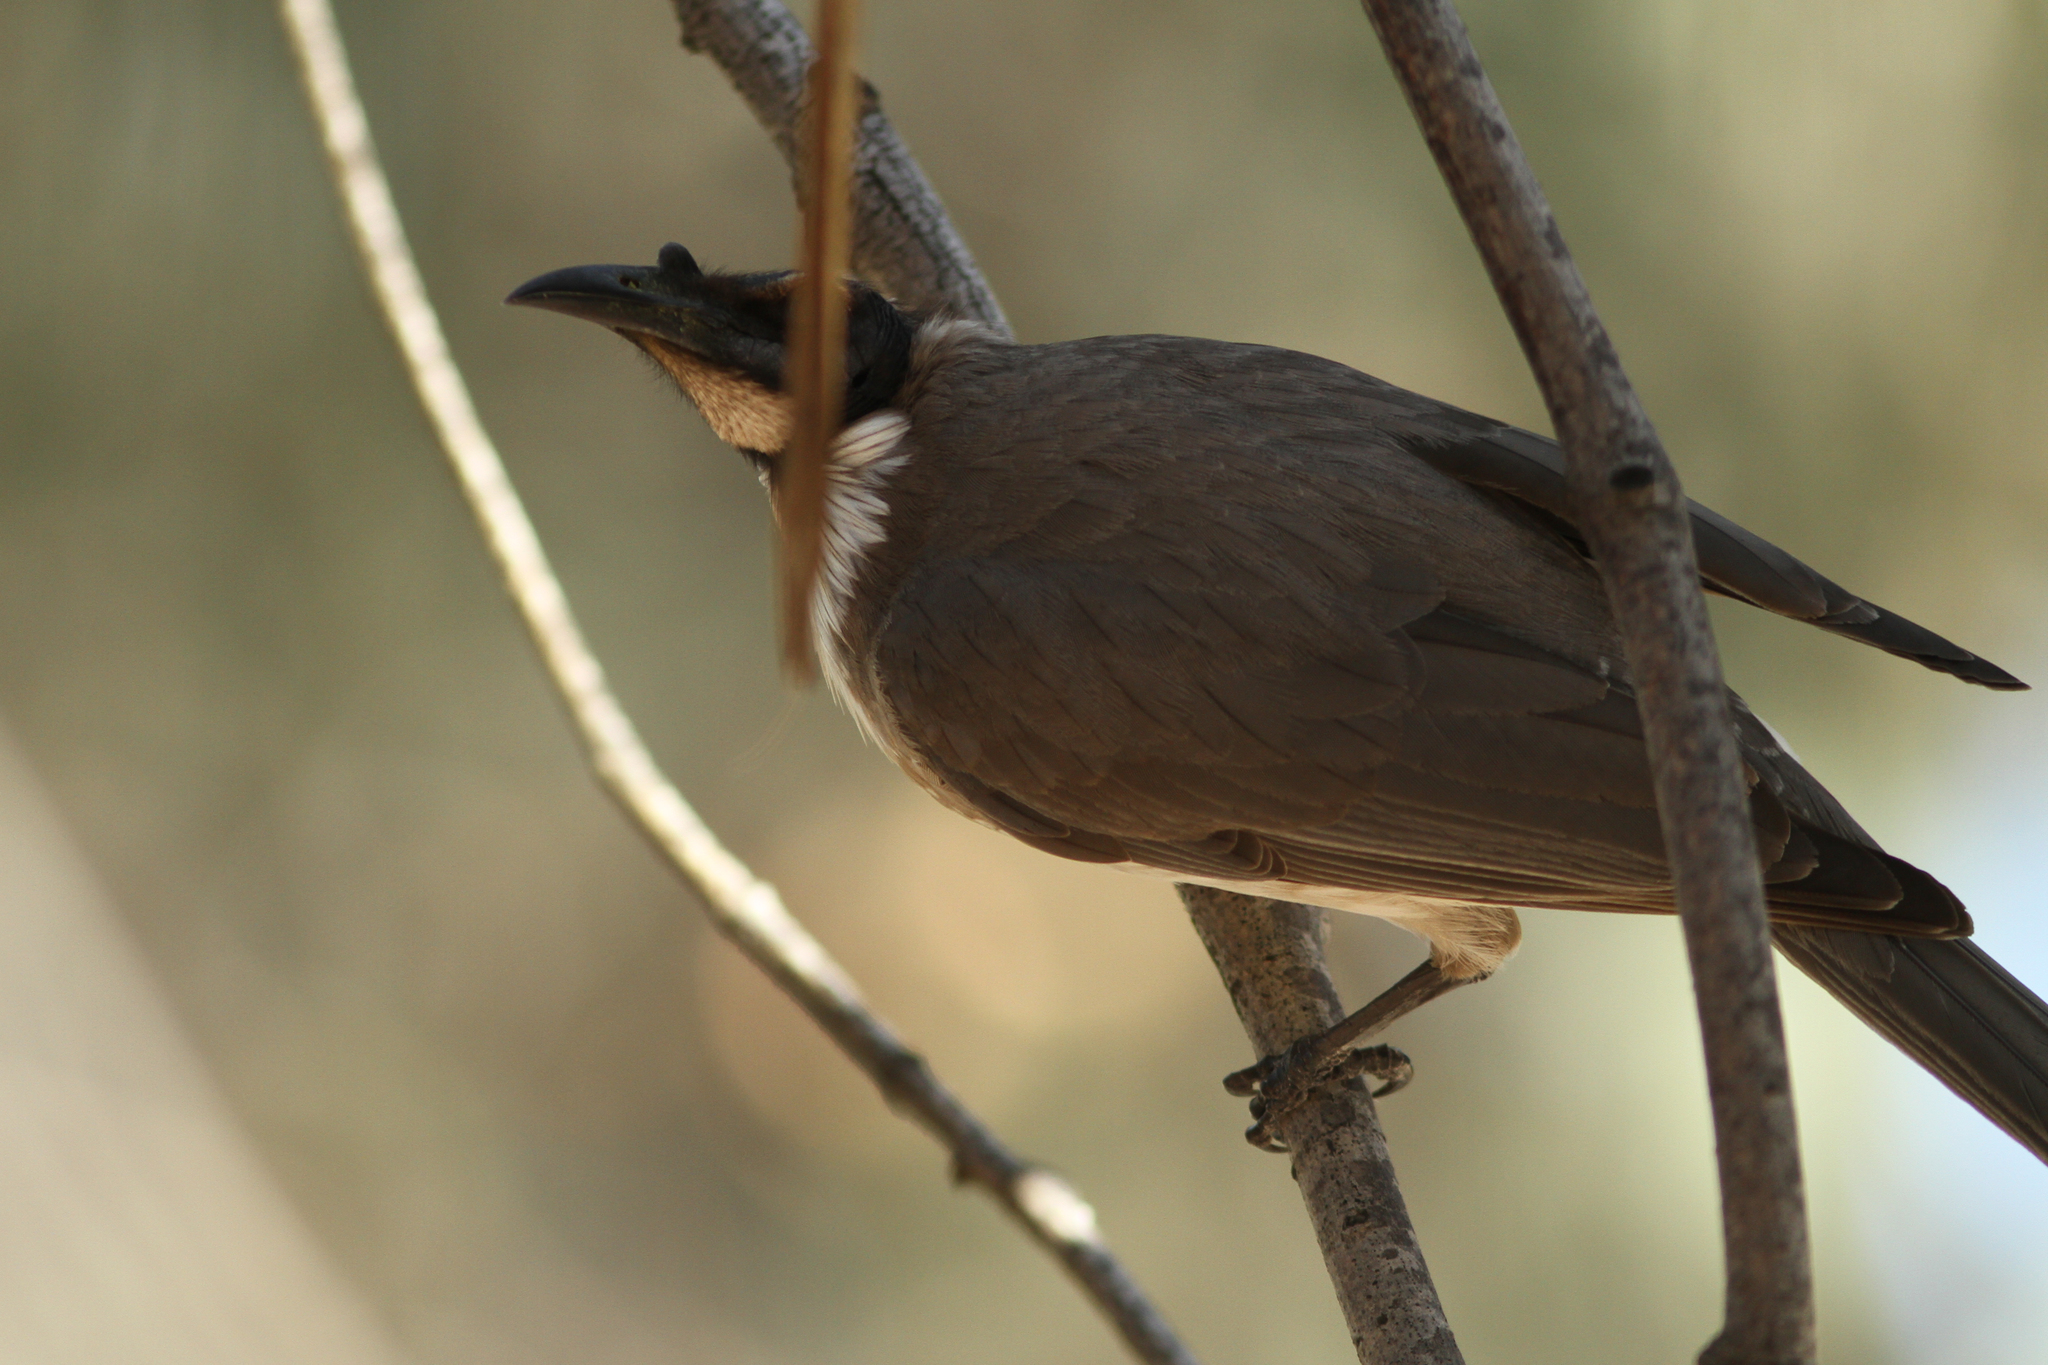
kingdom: Animalia
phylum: Chordata
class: Aves
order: Passeriformes
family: Meliphagidae
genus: Philemon
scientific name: Philemon corniculatus
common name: Noisy friarbird
